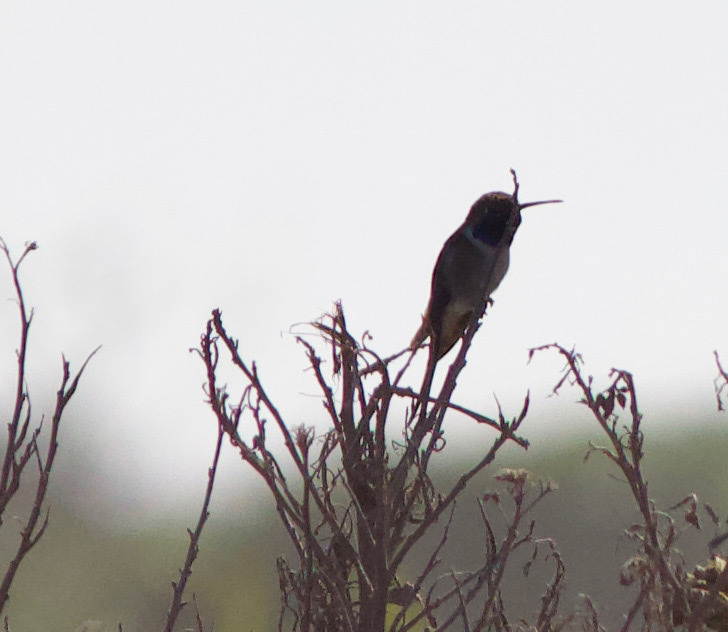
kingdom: Animalia
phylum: Chordata
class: Aves
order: Apodiformes
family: Trochilidae
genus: Rhodopis
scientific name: Rhodopis vesper
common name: Oasis hummingbird
